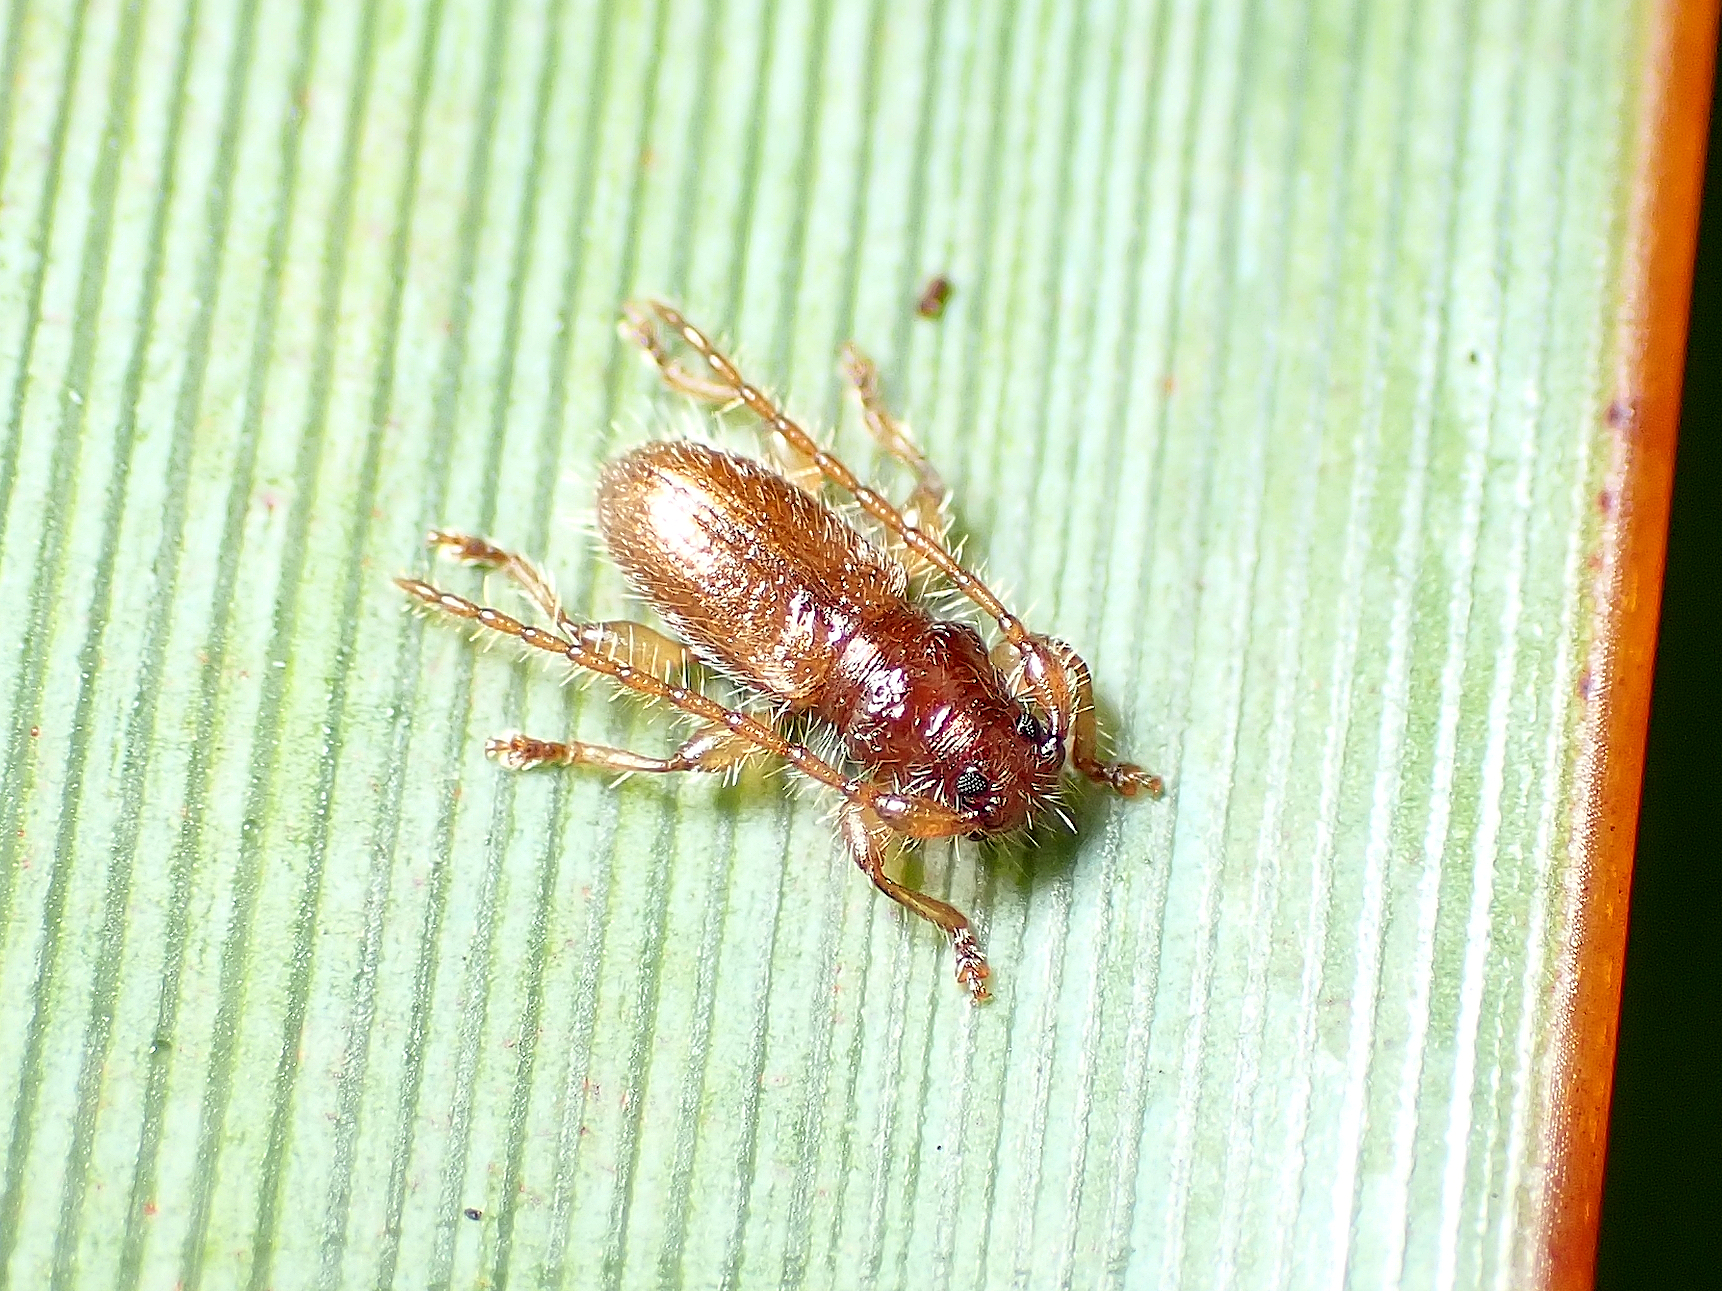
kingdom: Animalia
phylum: Arthropoda
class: Insecta
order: Coleoptera
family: Cerambycidae
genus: Microlamia
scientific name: Microlamia pygmaea
